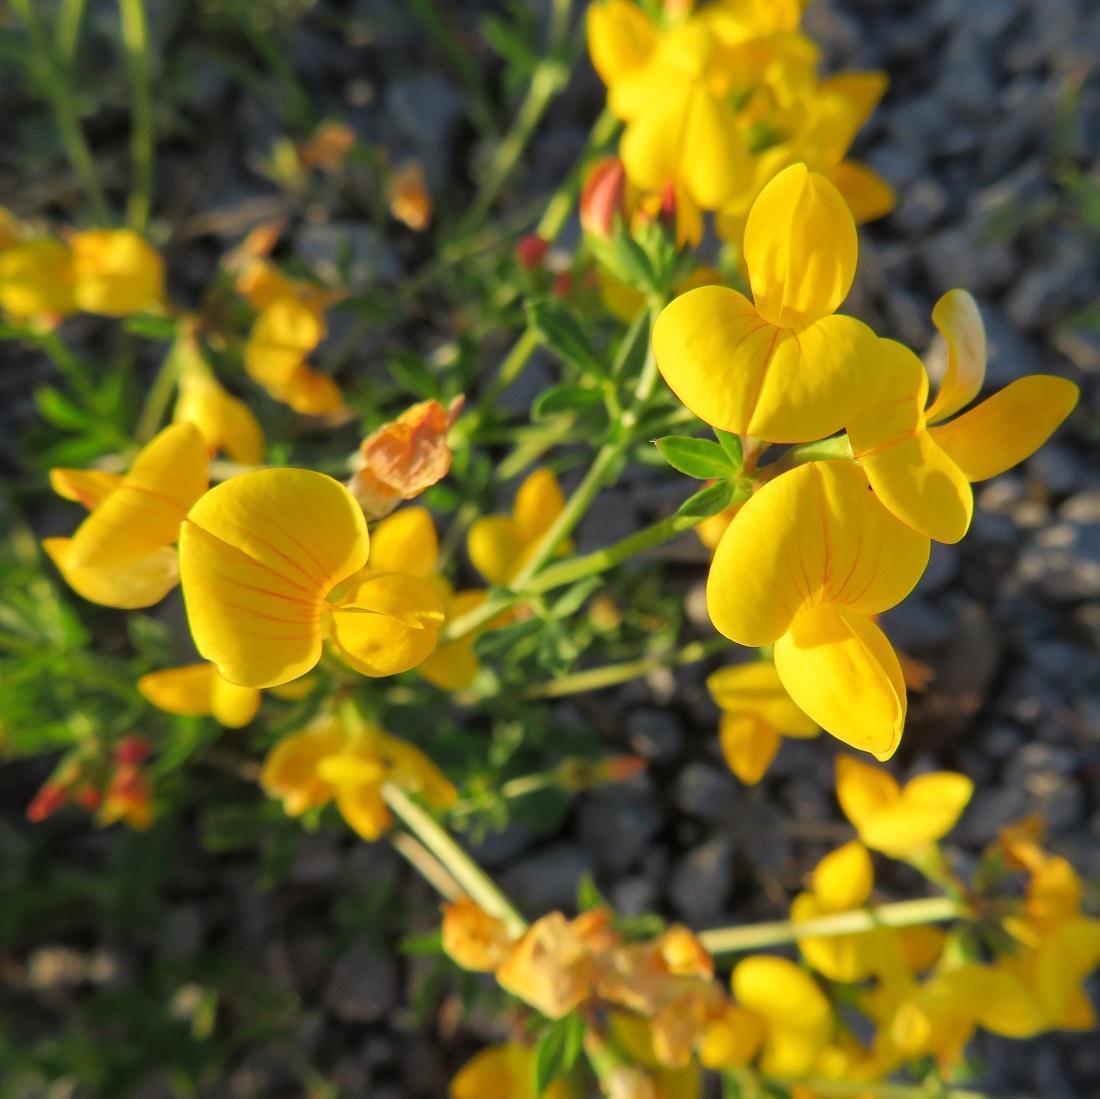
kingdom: Plantae
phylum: Tracheophyta
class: Magnoliopsida
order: Fabales
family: Fabaceae
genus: Lotus
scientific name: Lotus corniculatus
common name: Common bird's-foot-trefoil
